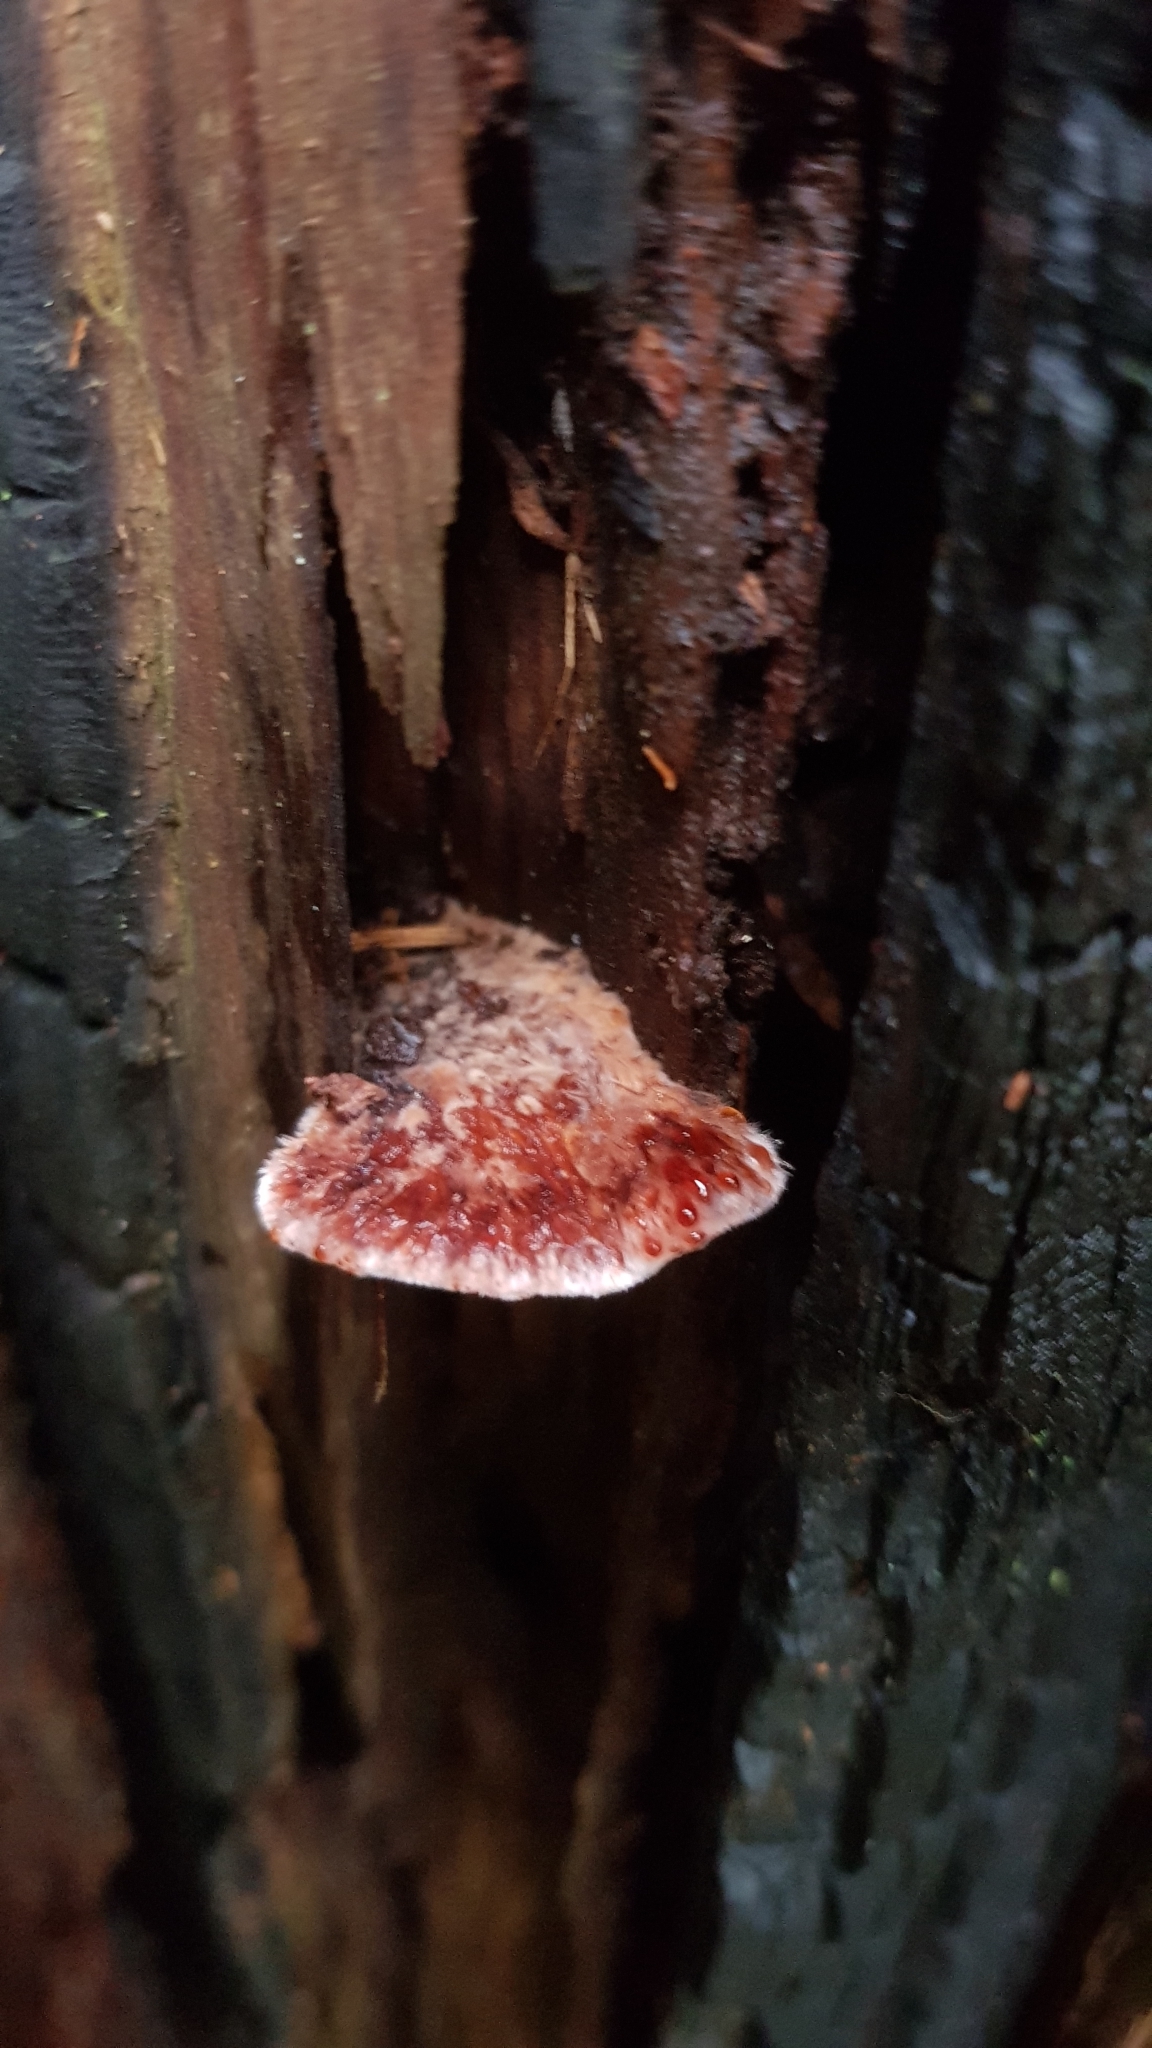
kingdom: Fungi
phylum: Basidiomycota
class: Agaricomycetes
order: Polyporales
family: Dacryobolaceae
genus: Oligoporus
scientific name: Oligoporus pelliculosus
